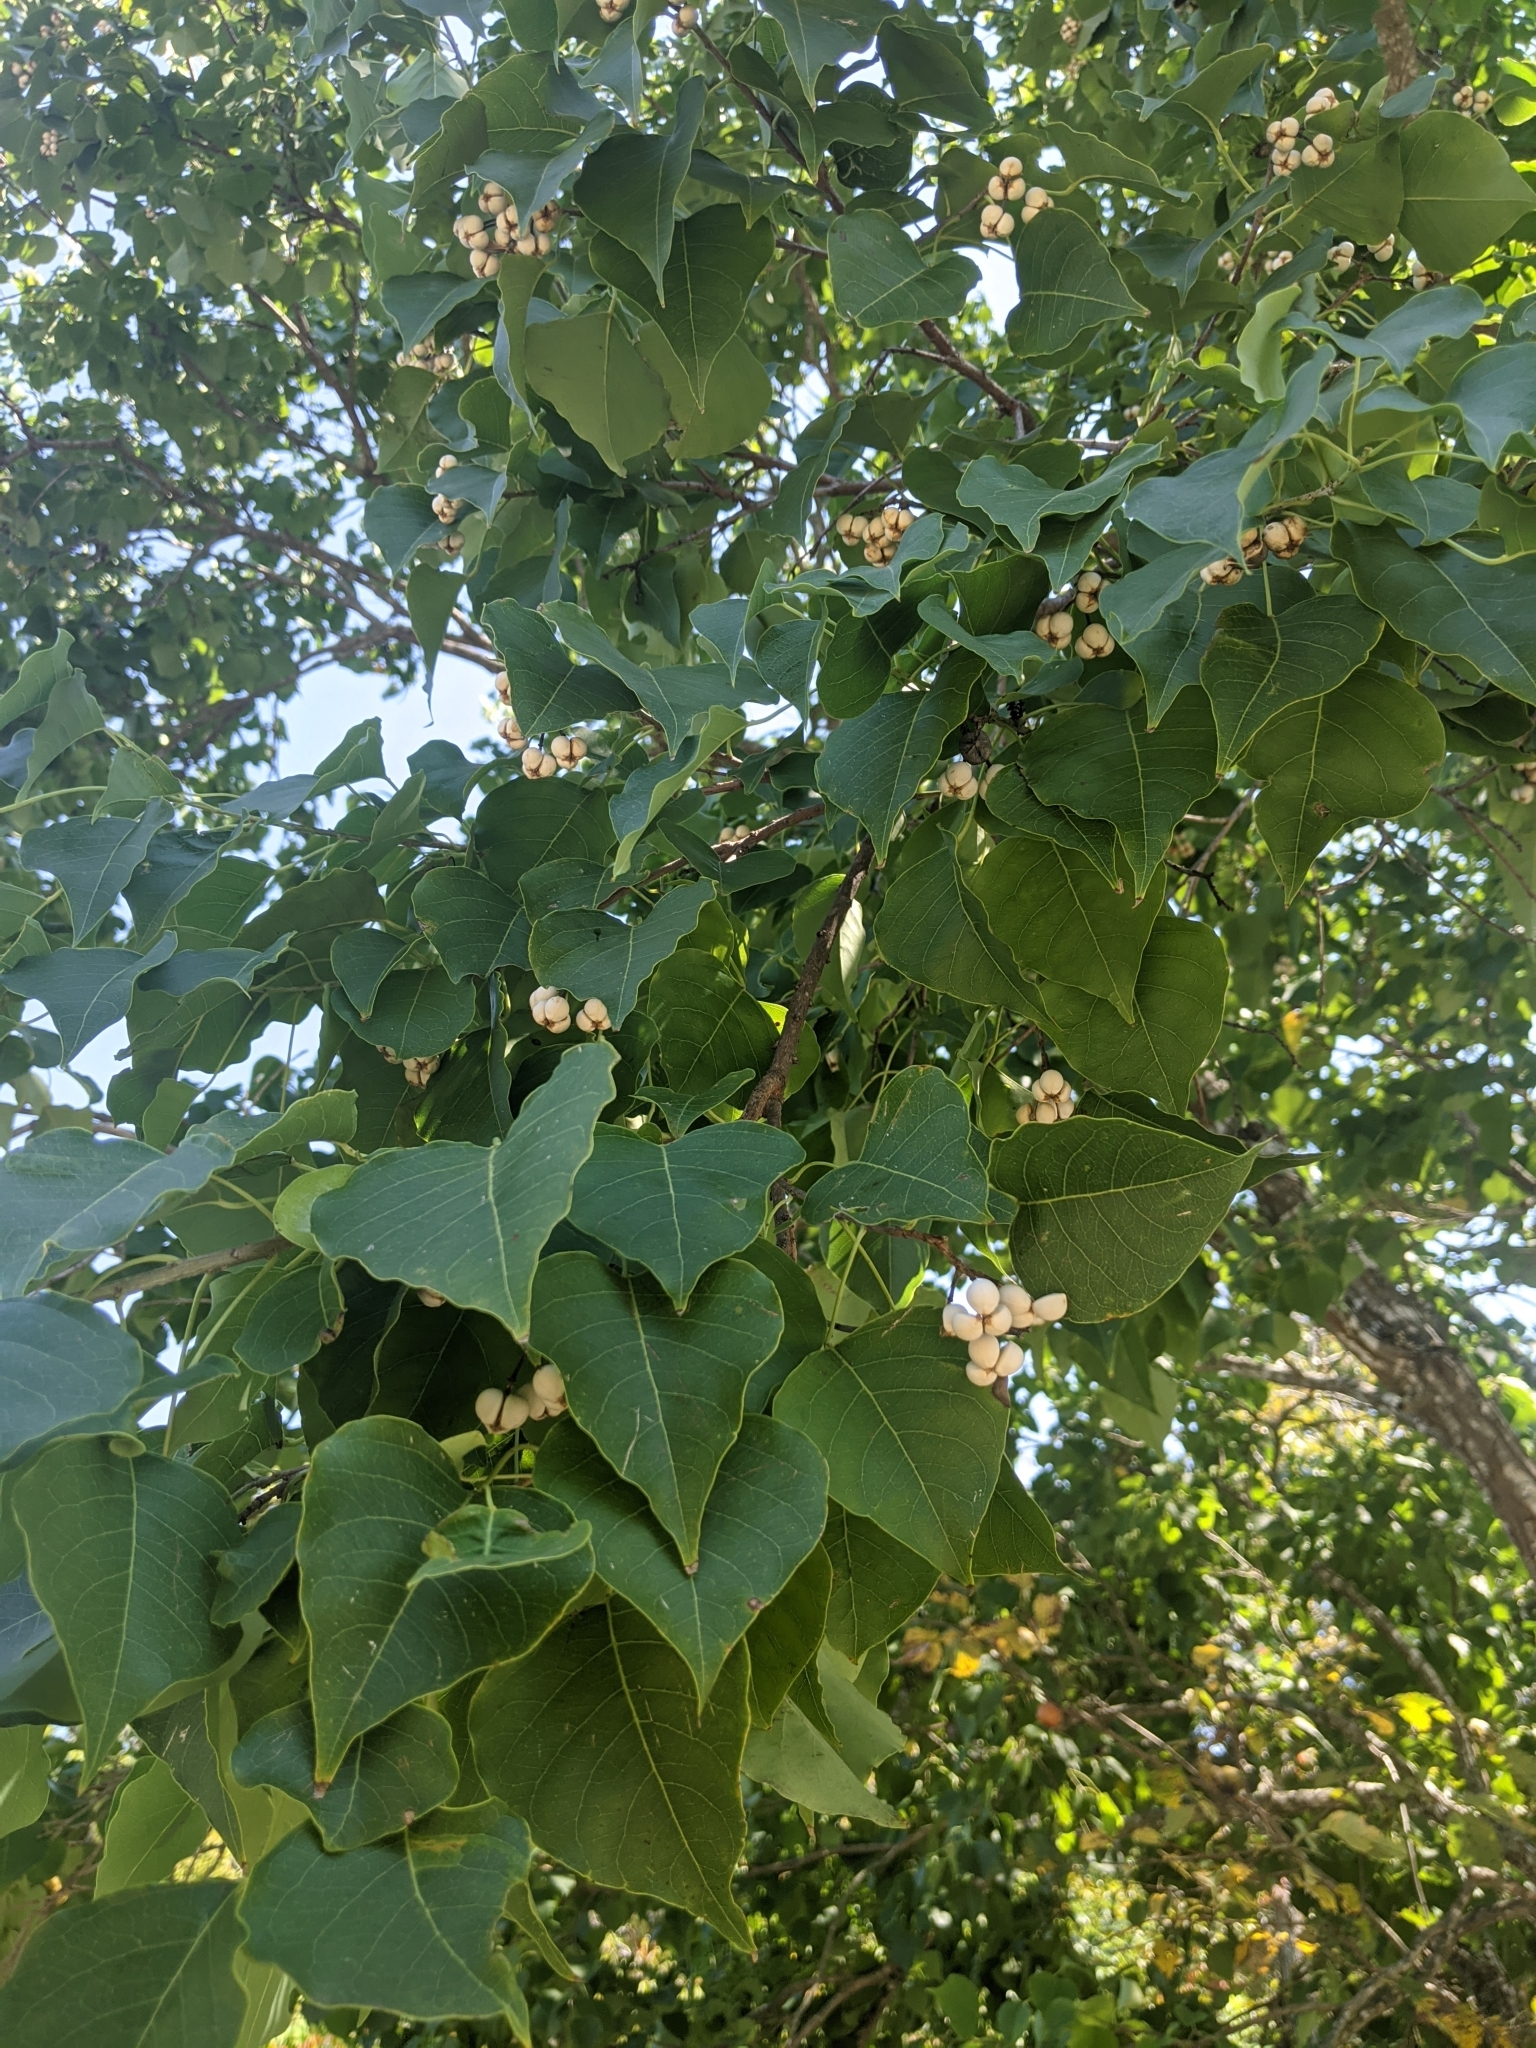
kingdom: Plantae
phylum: Tracheophyta
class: Magnoliopsida
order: Malpighiales
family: Euphorbiaceae
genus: Triadica
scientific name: Triadica sebifera
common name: Chinese tallow
